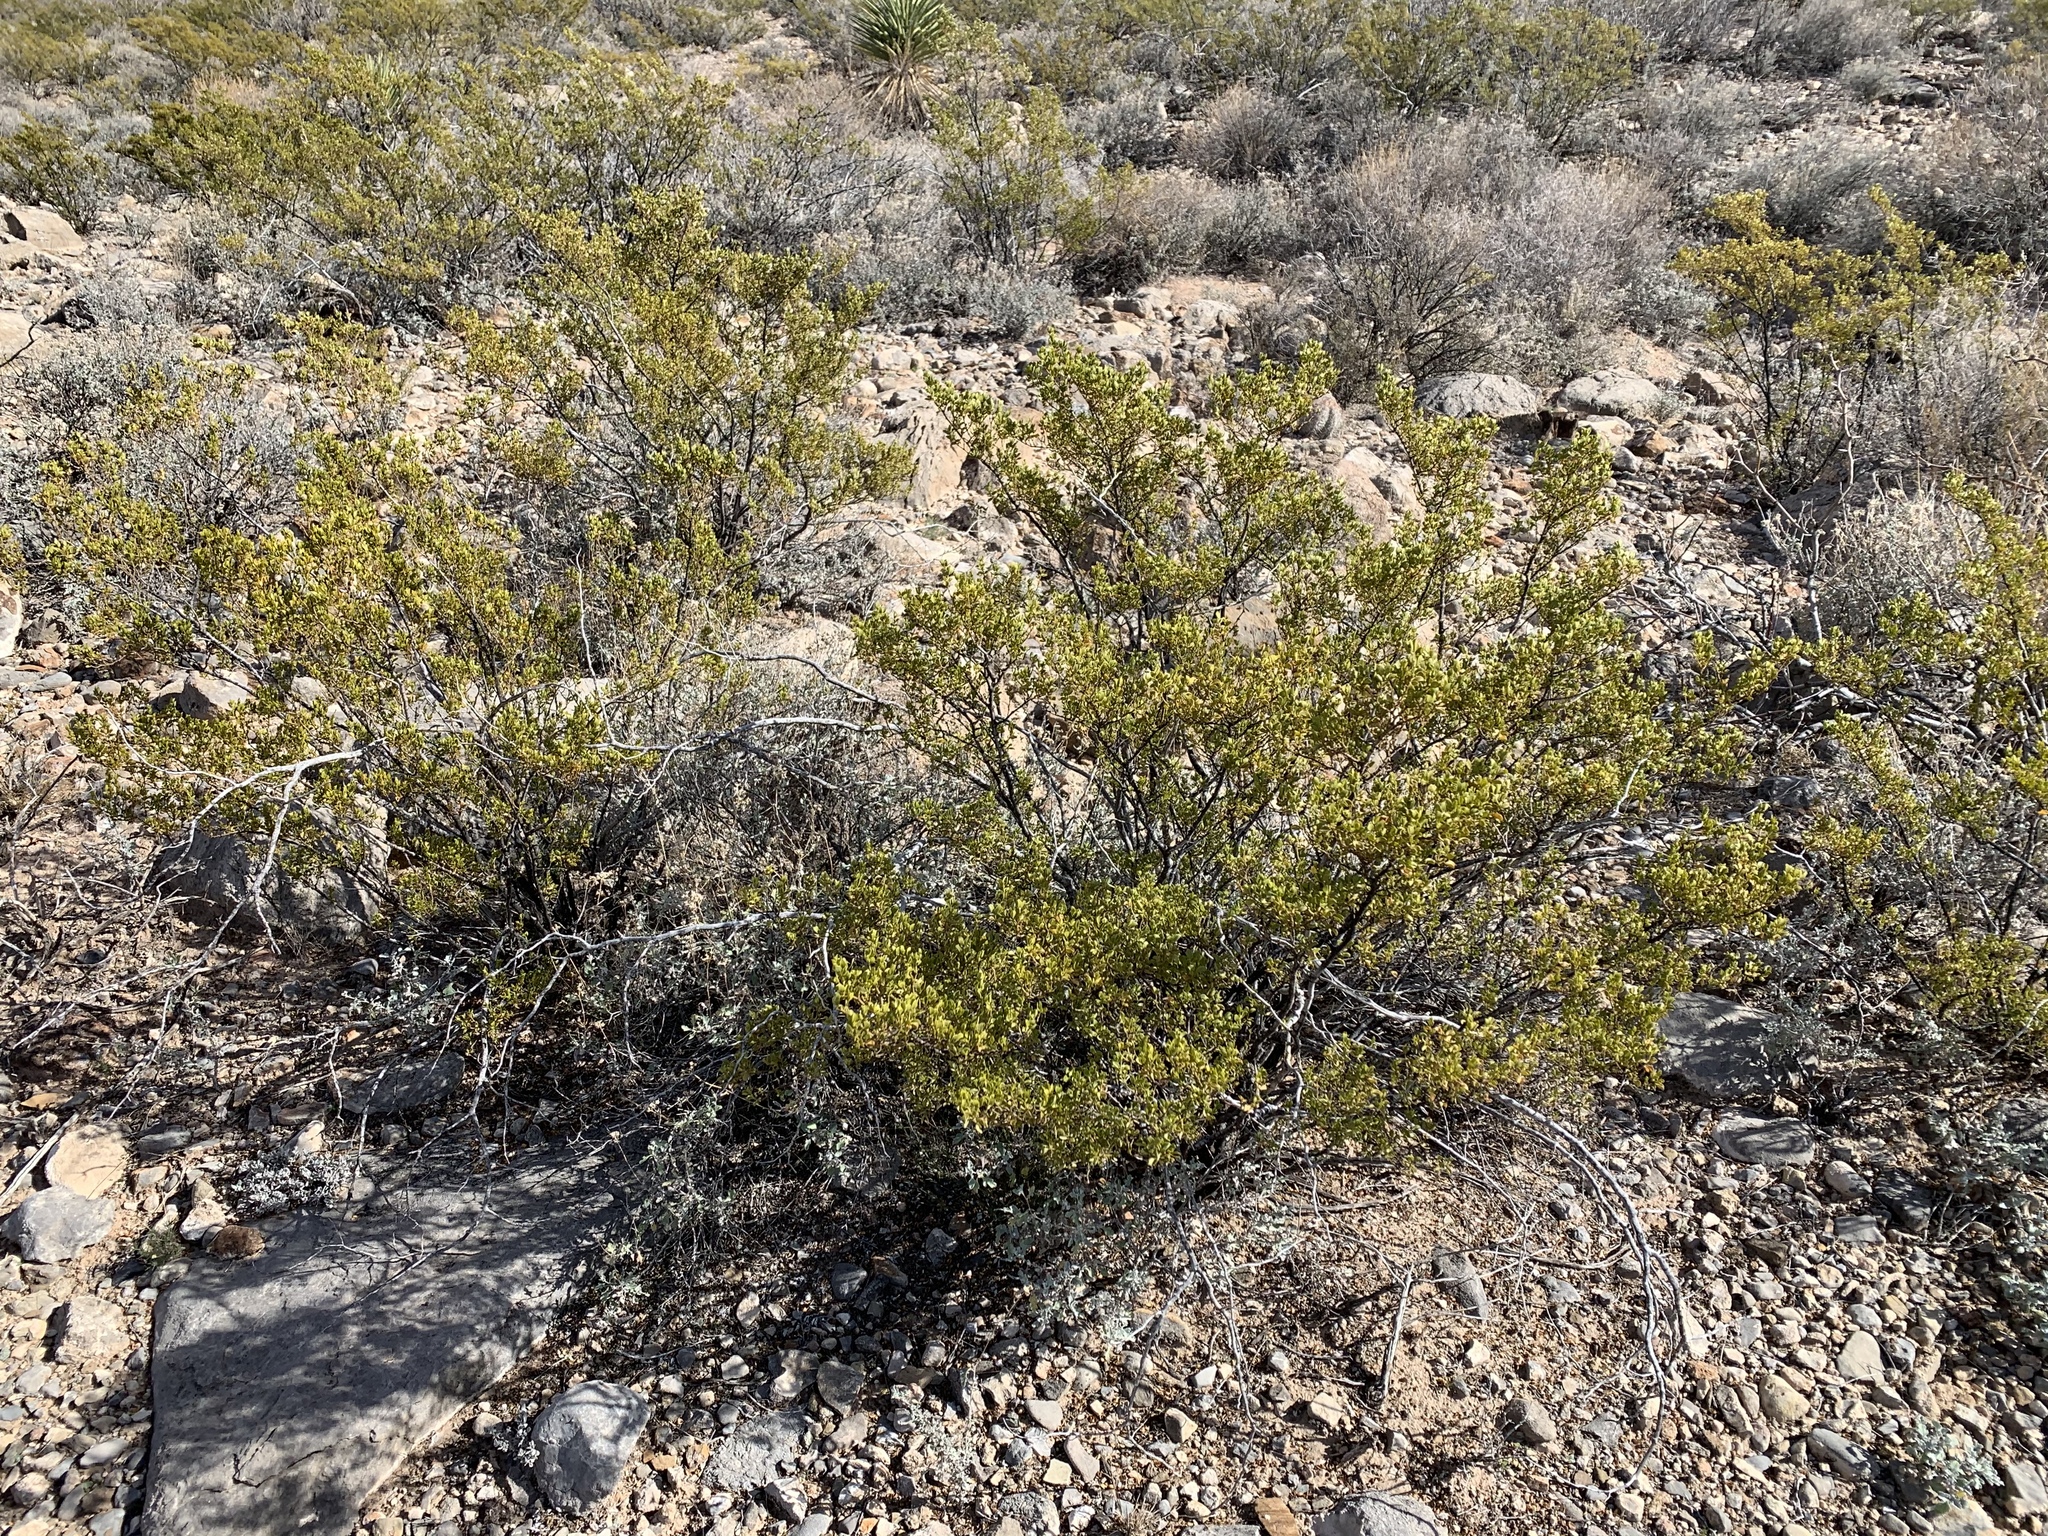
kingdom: Plantae
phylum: Tracheophyta
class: Magnoliopsida
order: Zygophyllales
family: Zygophyllaceae
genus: Larrea
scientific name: Larrea tridentata
